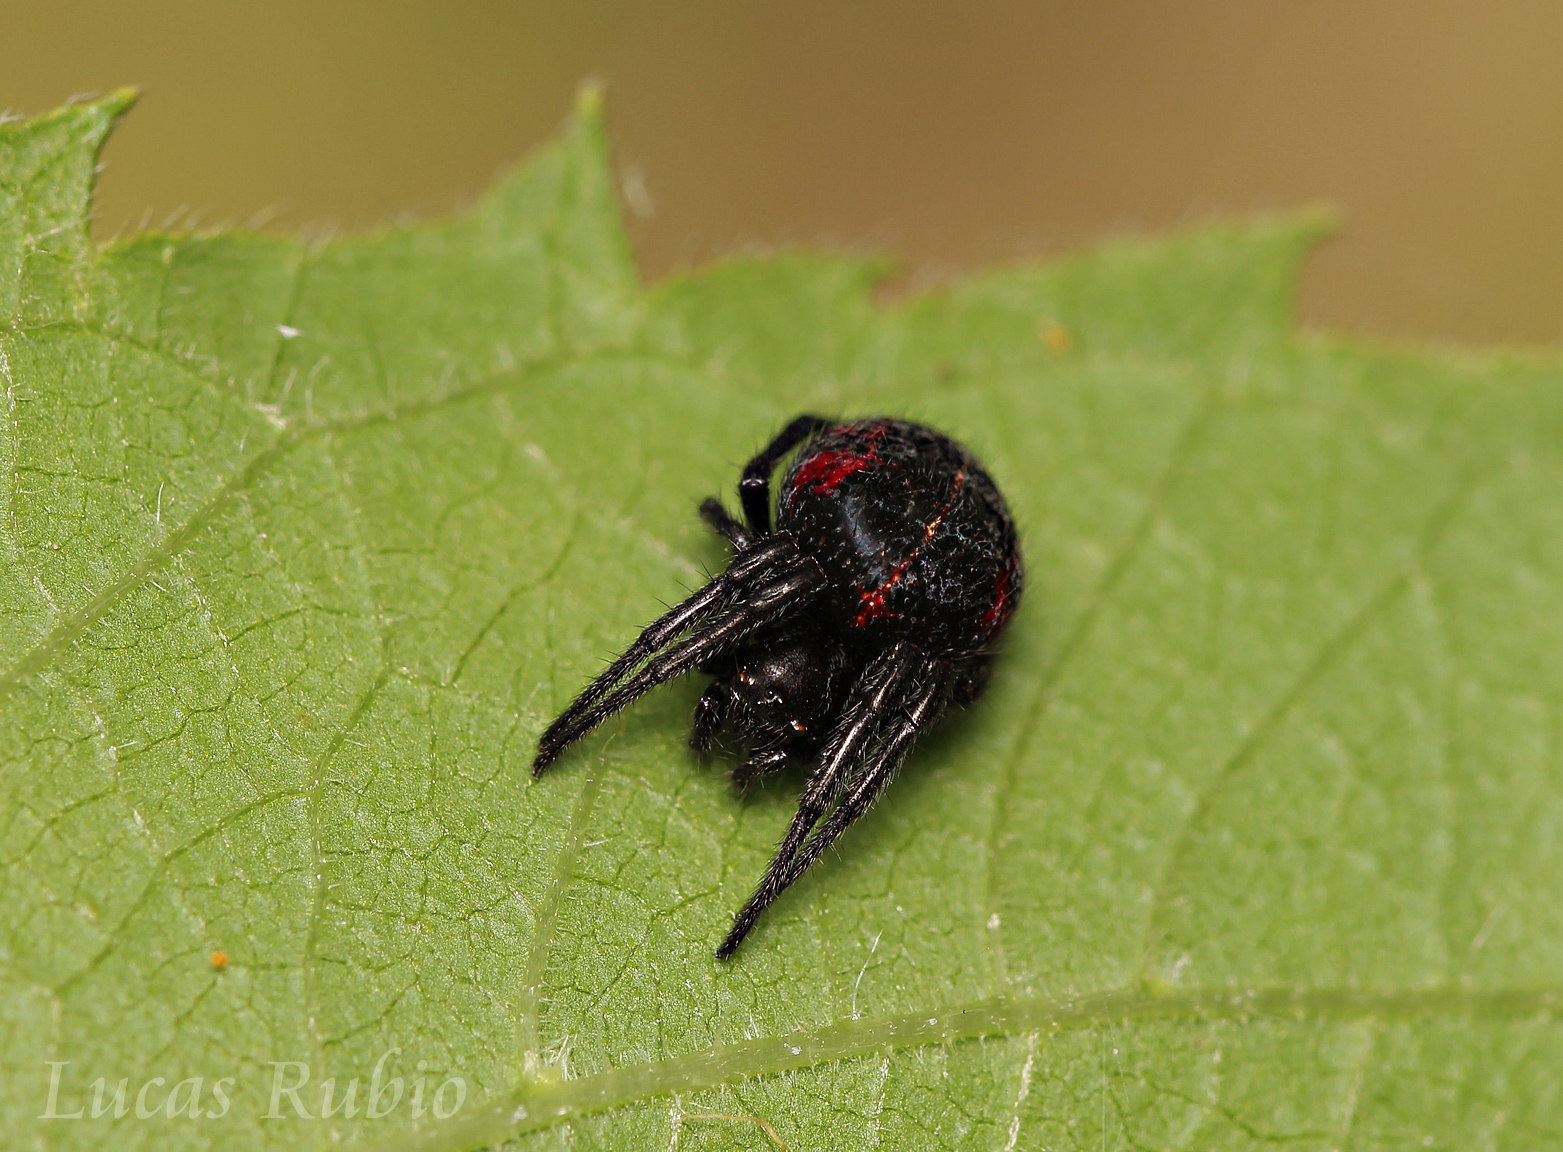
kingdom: Animalia
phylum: Arthropoda
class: Arachnida
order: Araneae
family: Araneidae
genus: Parawixia
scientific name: Parawixia bistriata
